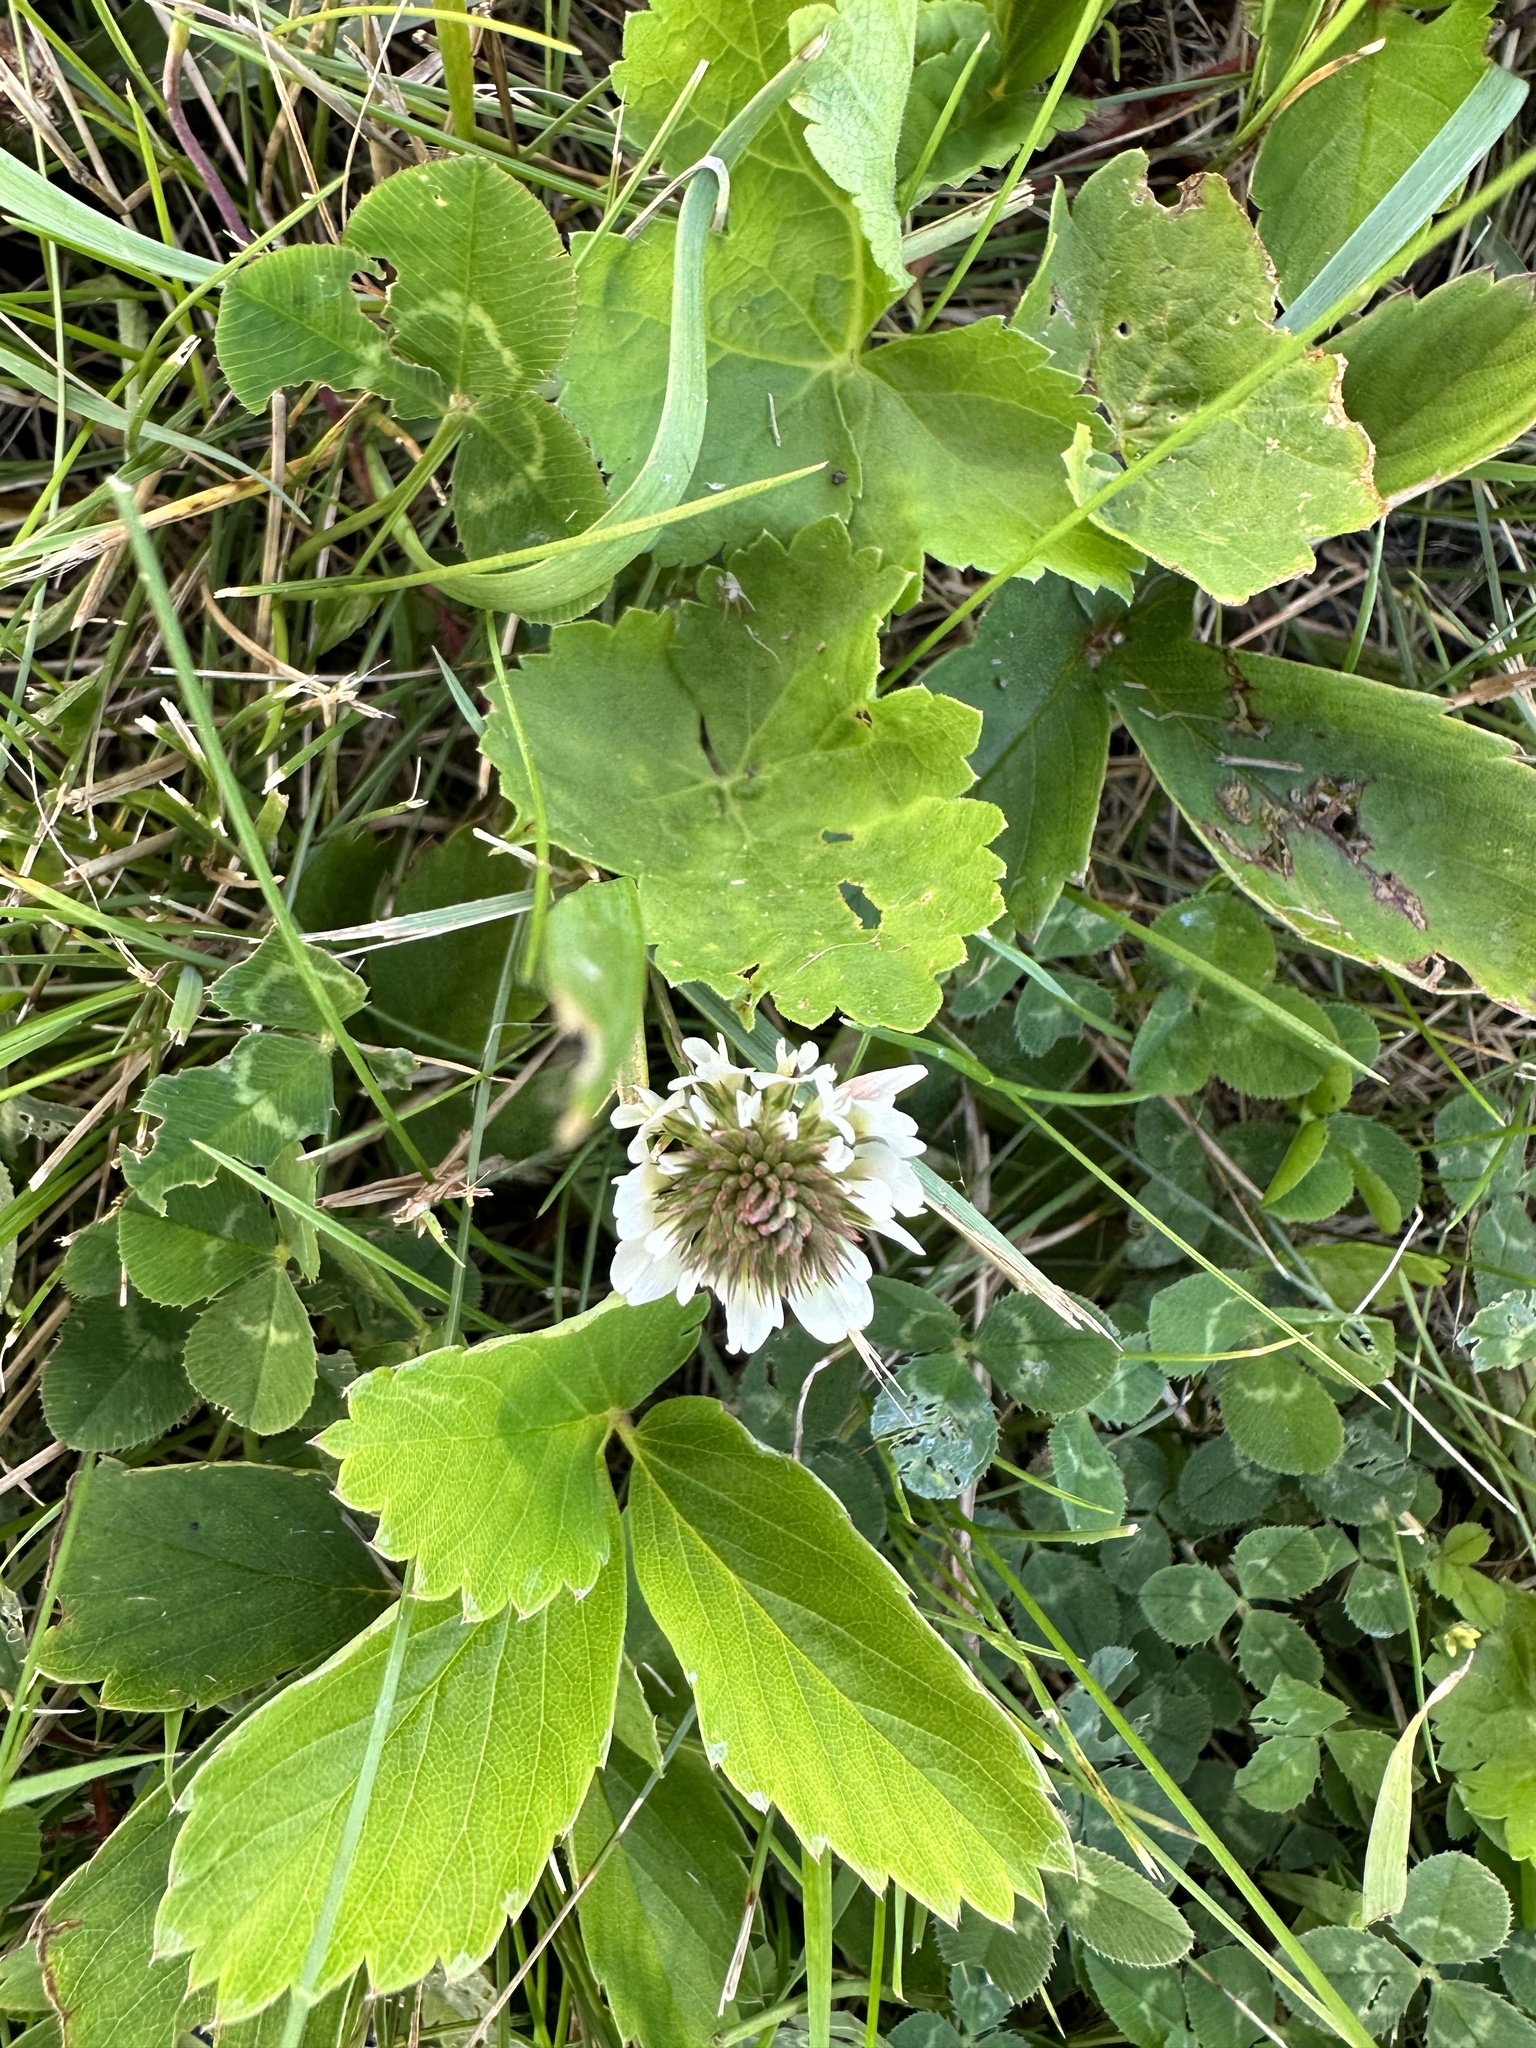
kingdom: Plantae
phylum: Tracheophyta
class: Magnoliopsida
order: Fabales
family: Fabaceae
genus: Trifolium
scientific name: Trifolium repens
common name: White clover
